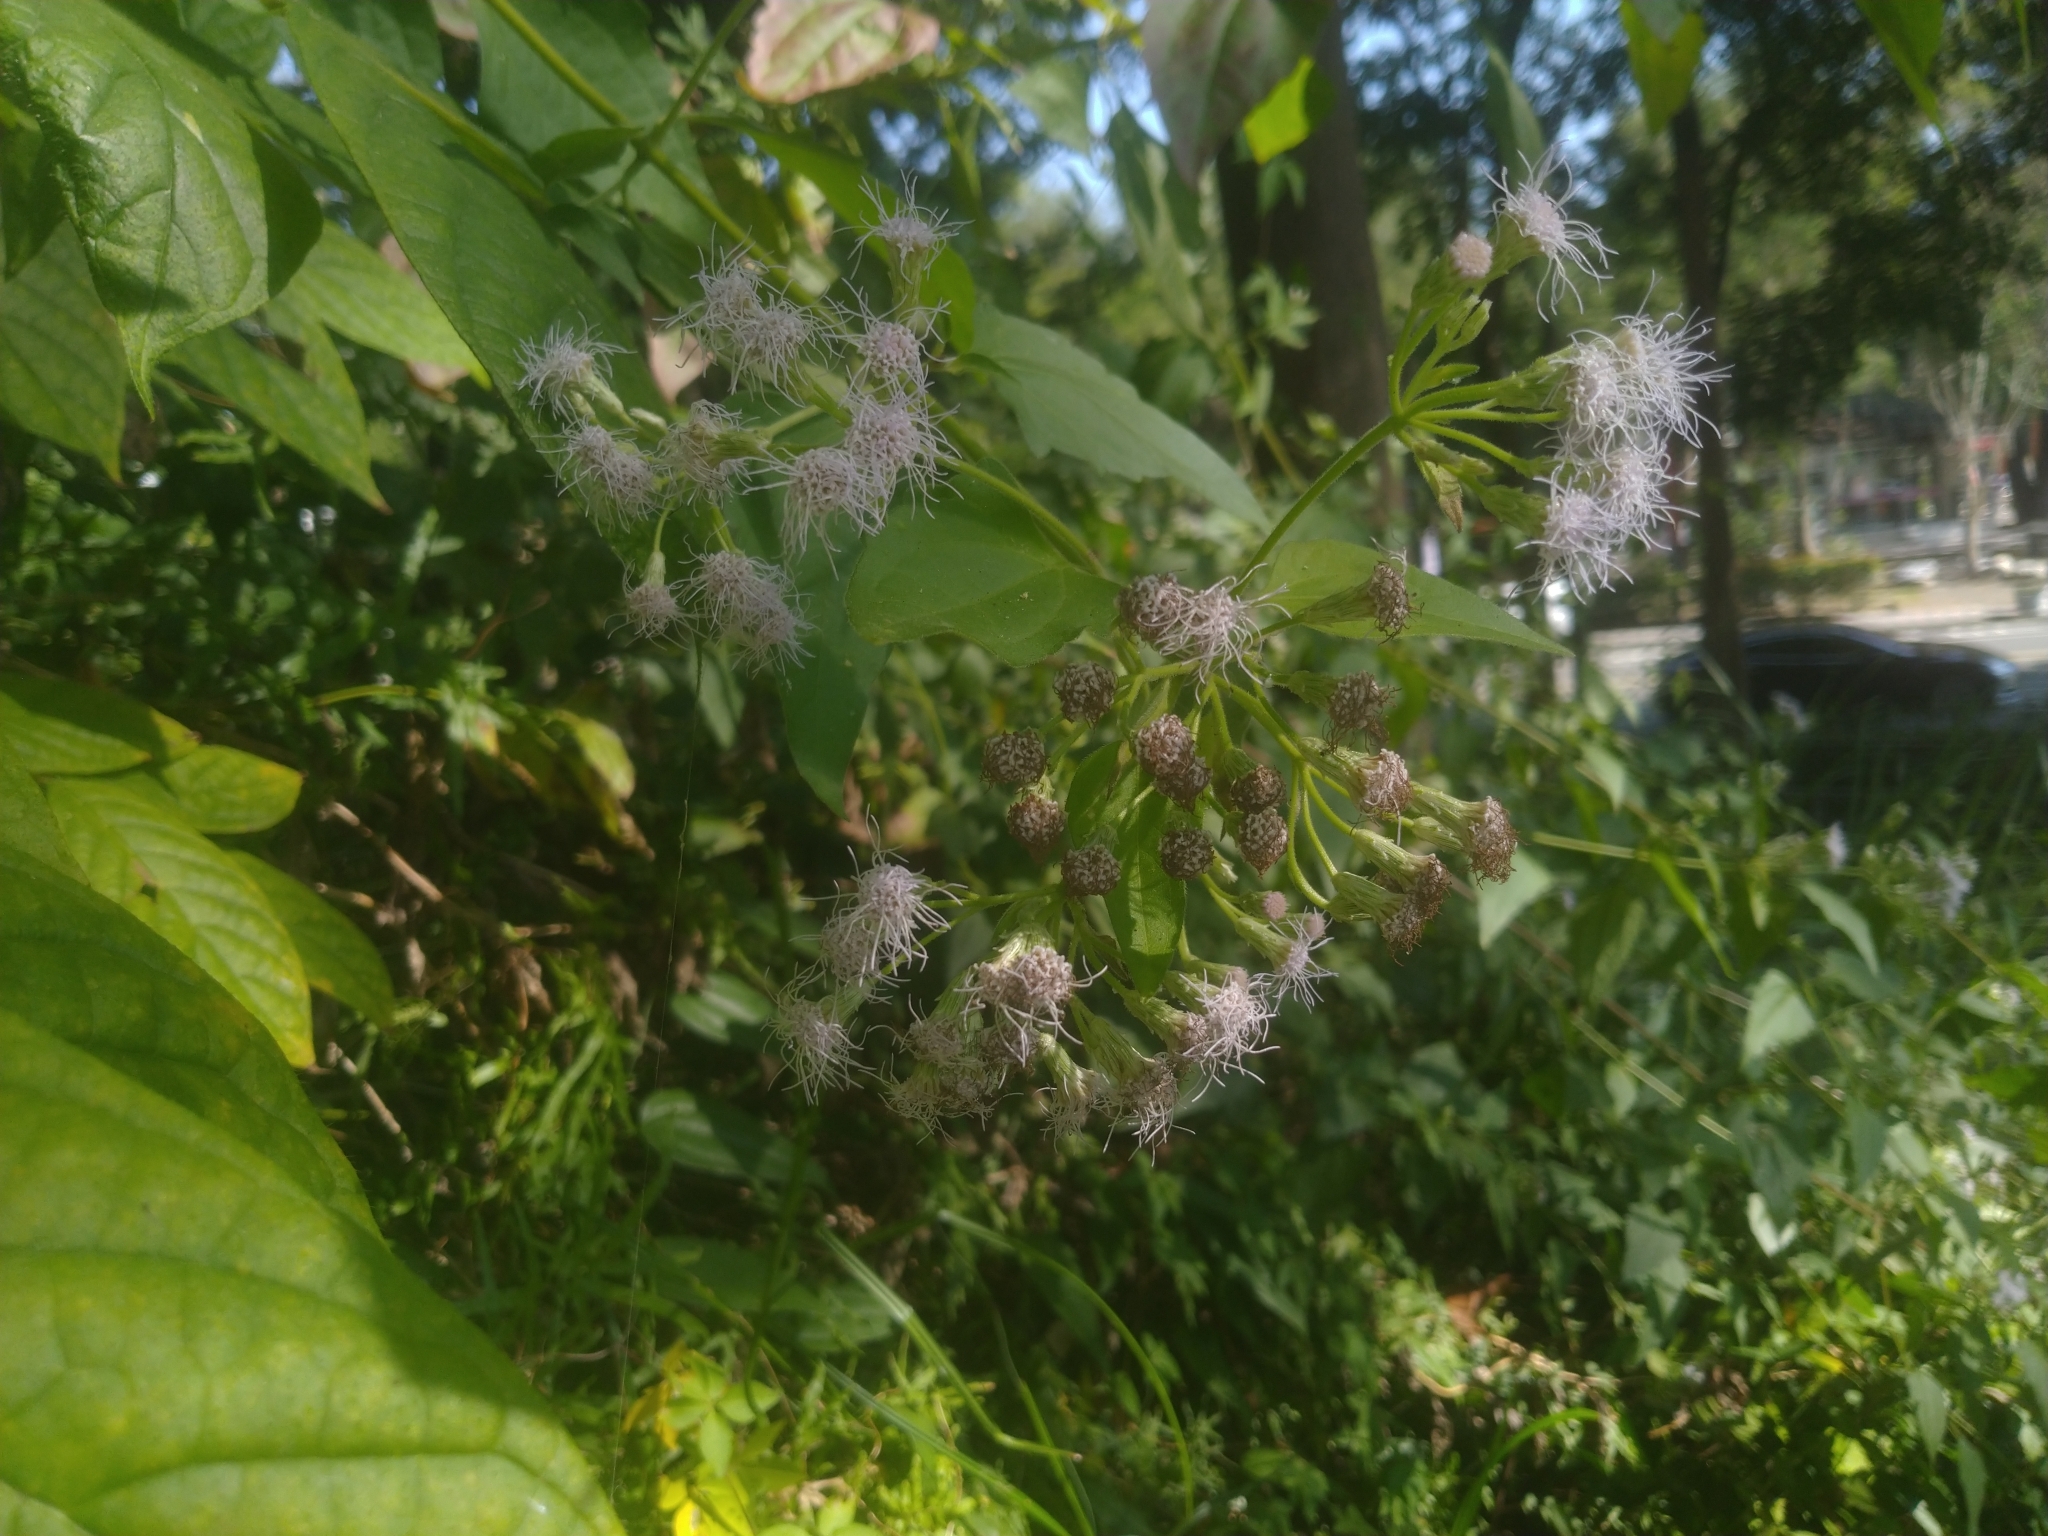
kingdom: Plantae
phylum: Tracheophyta
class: Magnoliopsida
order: Asterales
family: Asteraceae
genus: Chromolaena
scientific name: Chromolaena odorata
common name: Siamweed
